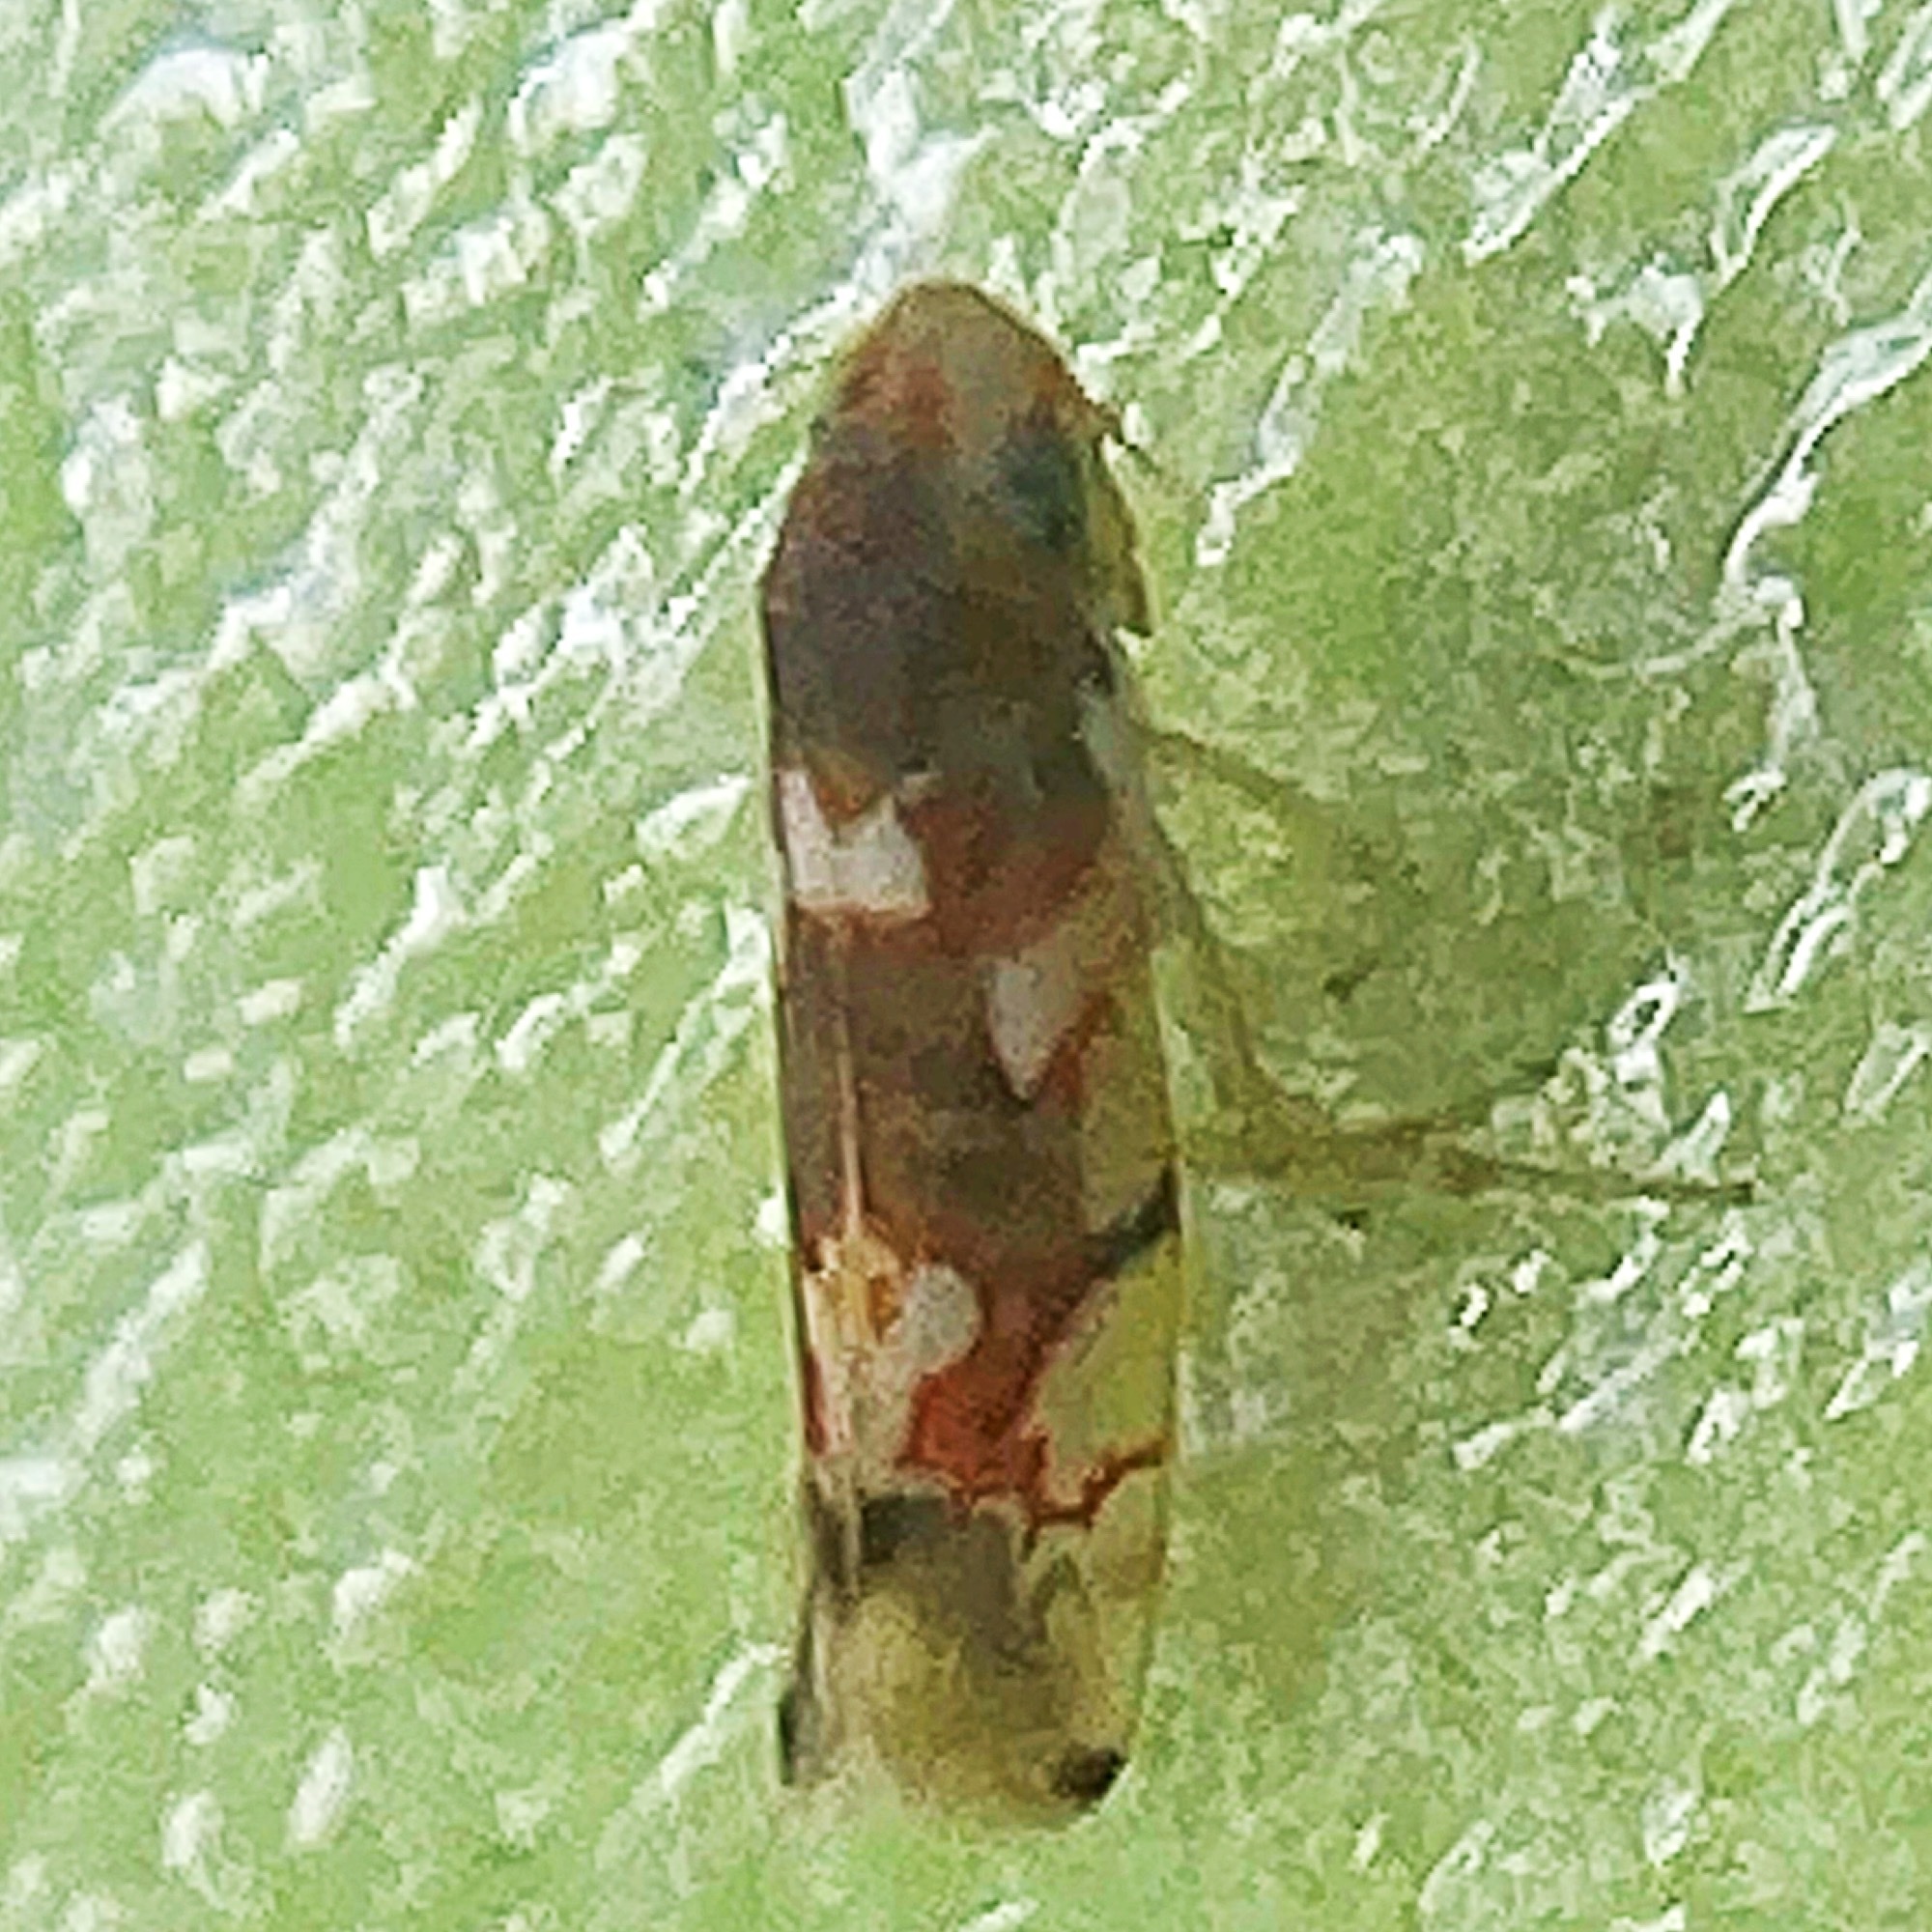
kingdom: Animalia
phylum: Arthropoda
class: Insecta
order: Hemiptera
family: Cicadellidae
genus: Erythroneura
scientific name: Erythroneura elegans
